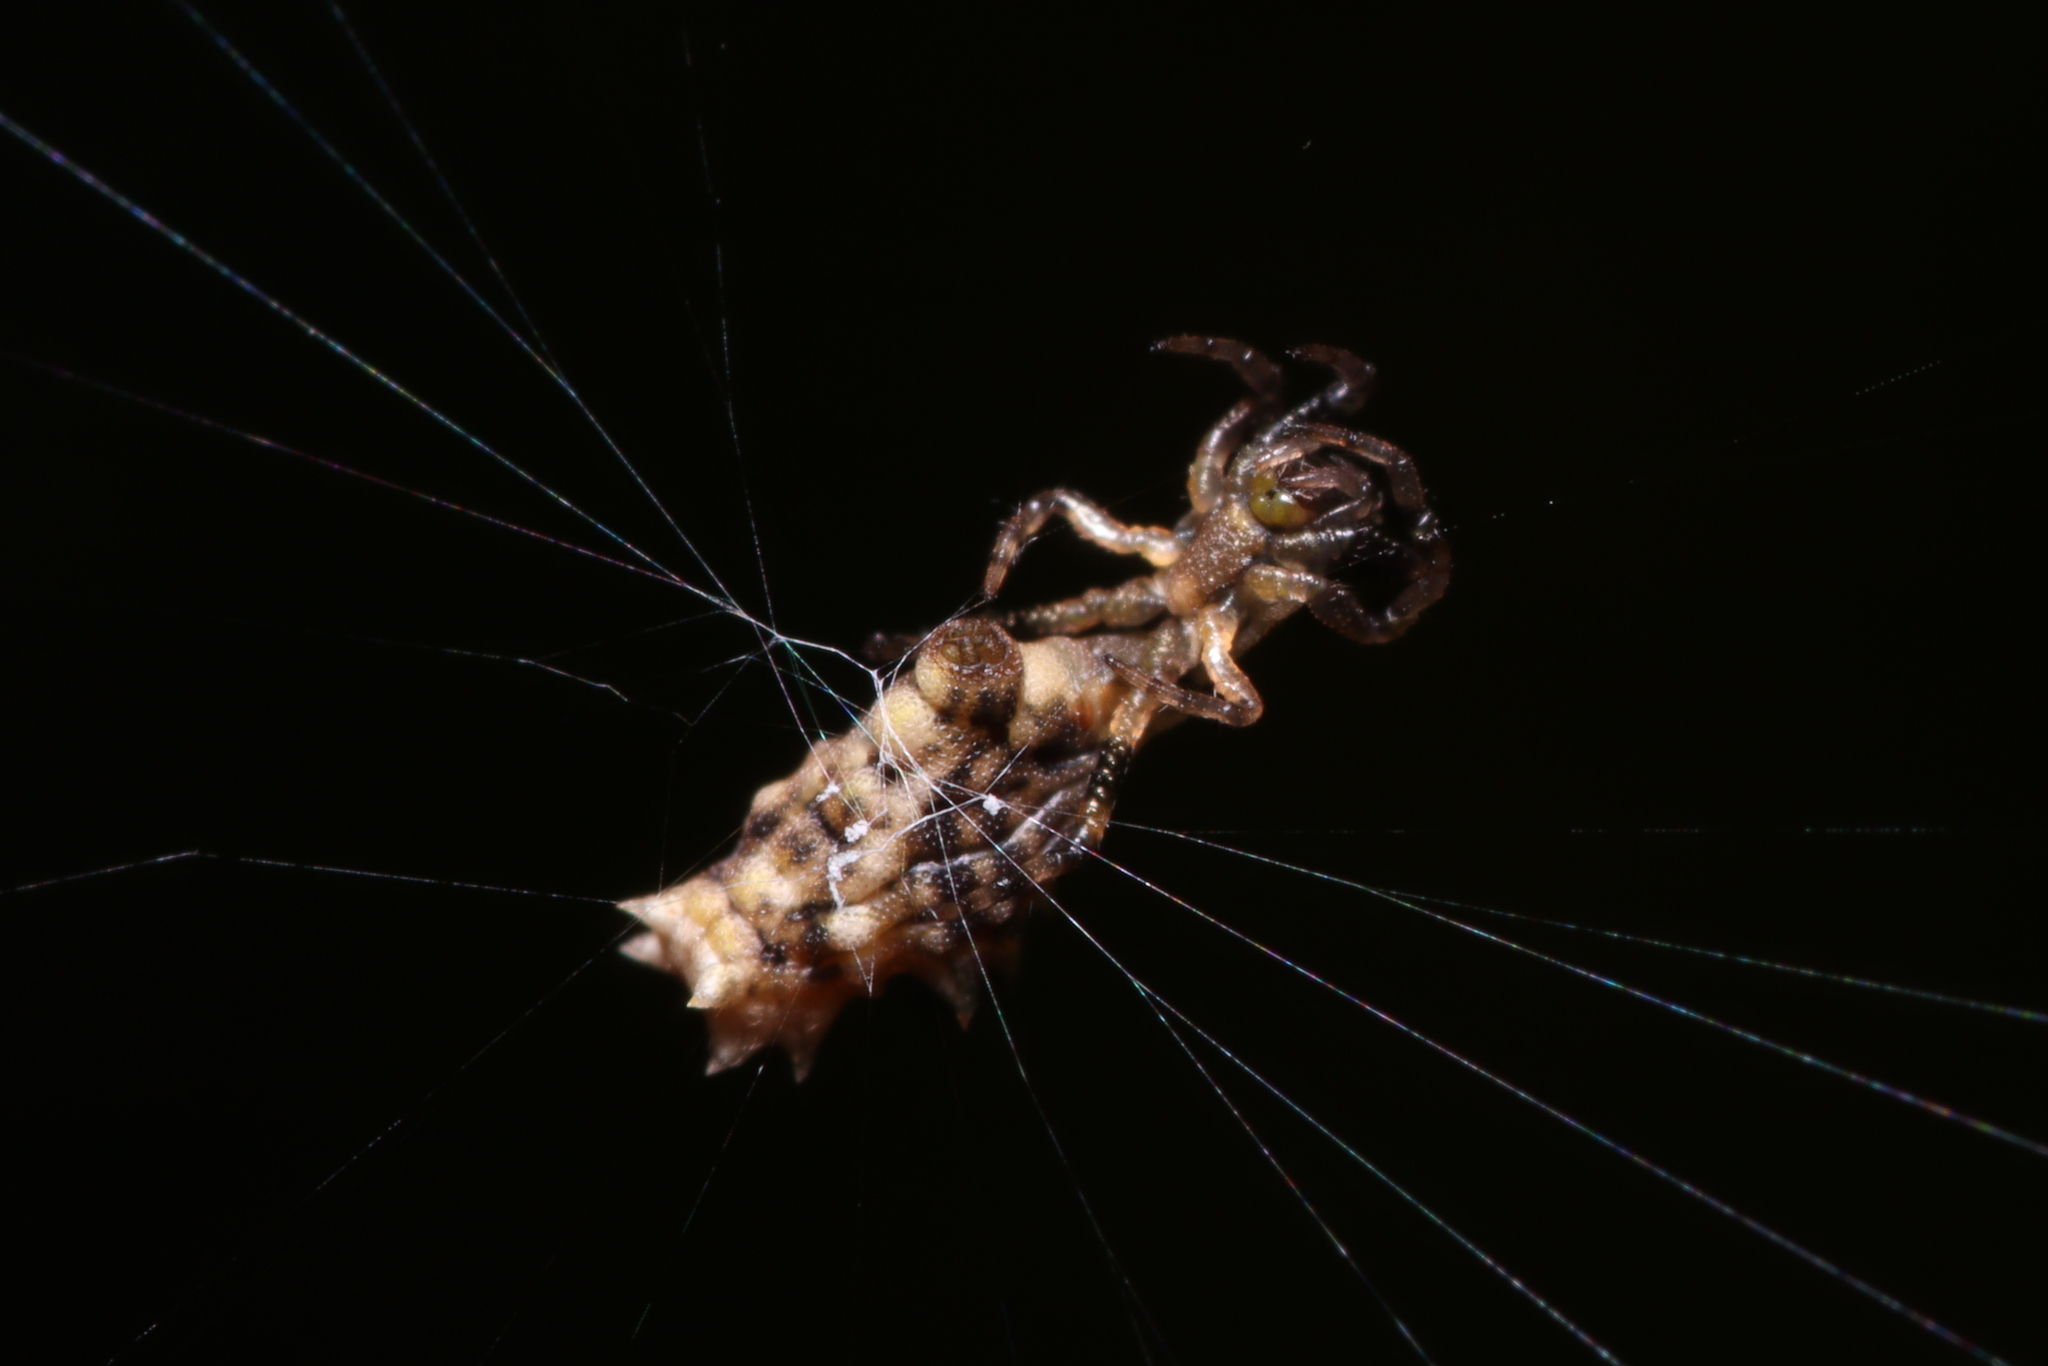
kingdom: Animalia
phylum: Arthropoda
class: Arachnida
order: Araneae
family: Araneidae
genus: Micrathena
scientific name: Micrathena horrida
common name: Orb weavers
